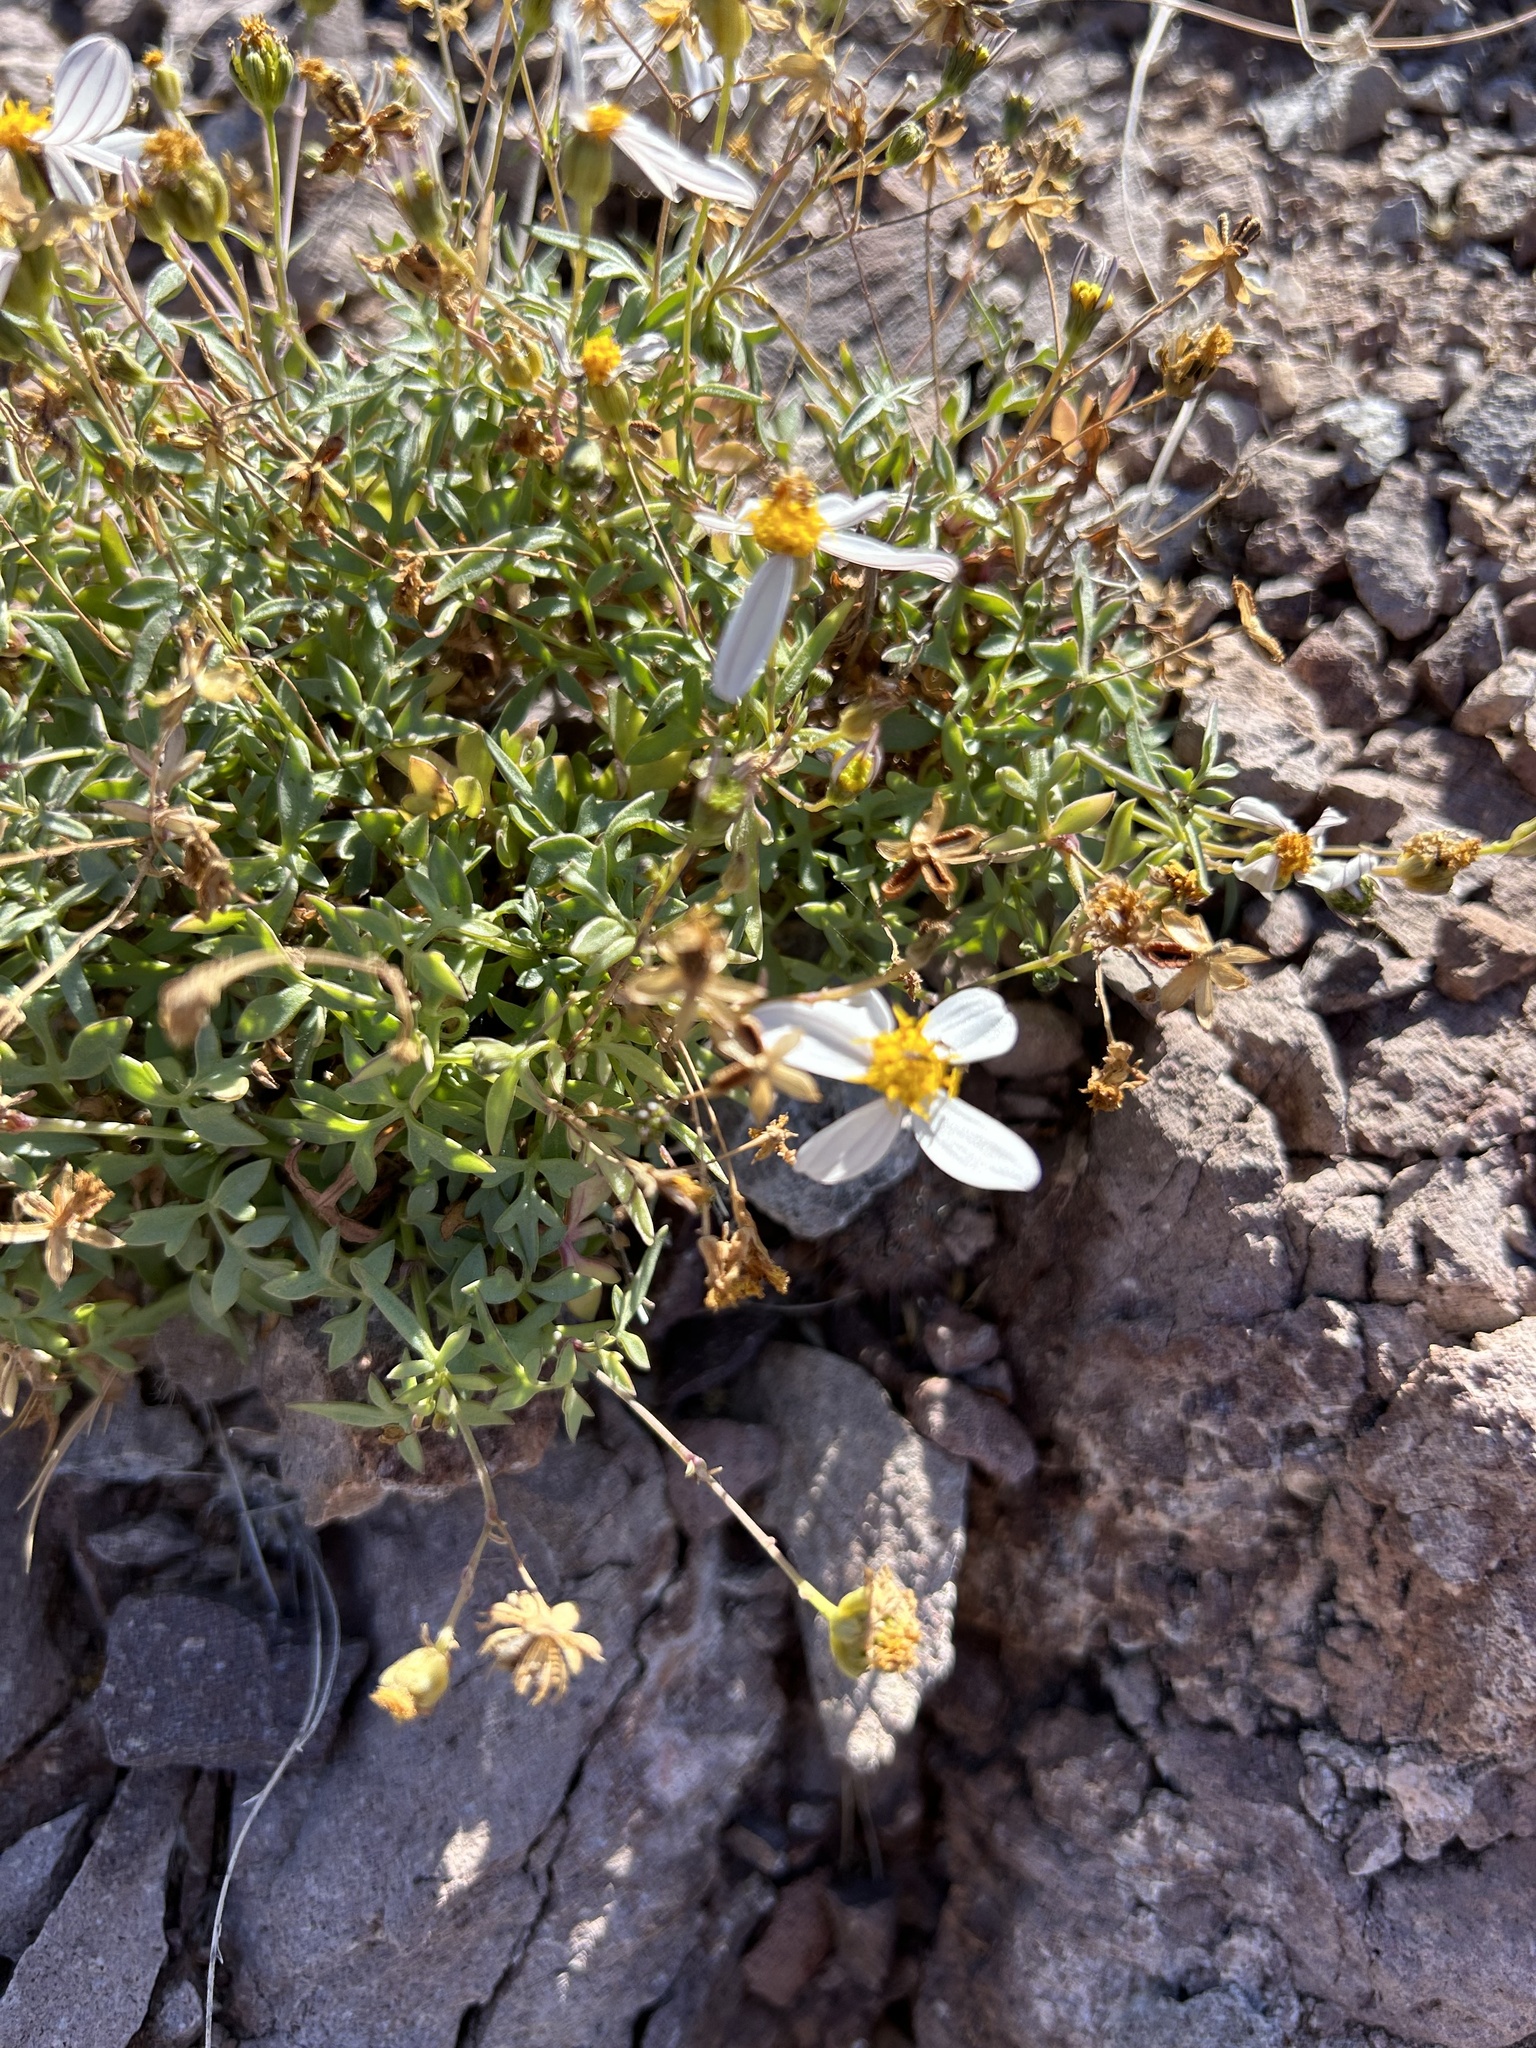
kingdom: Plantae
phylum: Tracheophyta
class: Magnoliopsida
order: Asterales
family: Asteraceae
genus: Coreocarpus
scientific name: Coreocarpus sonoranus
